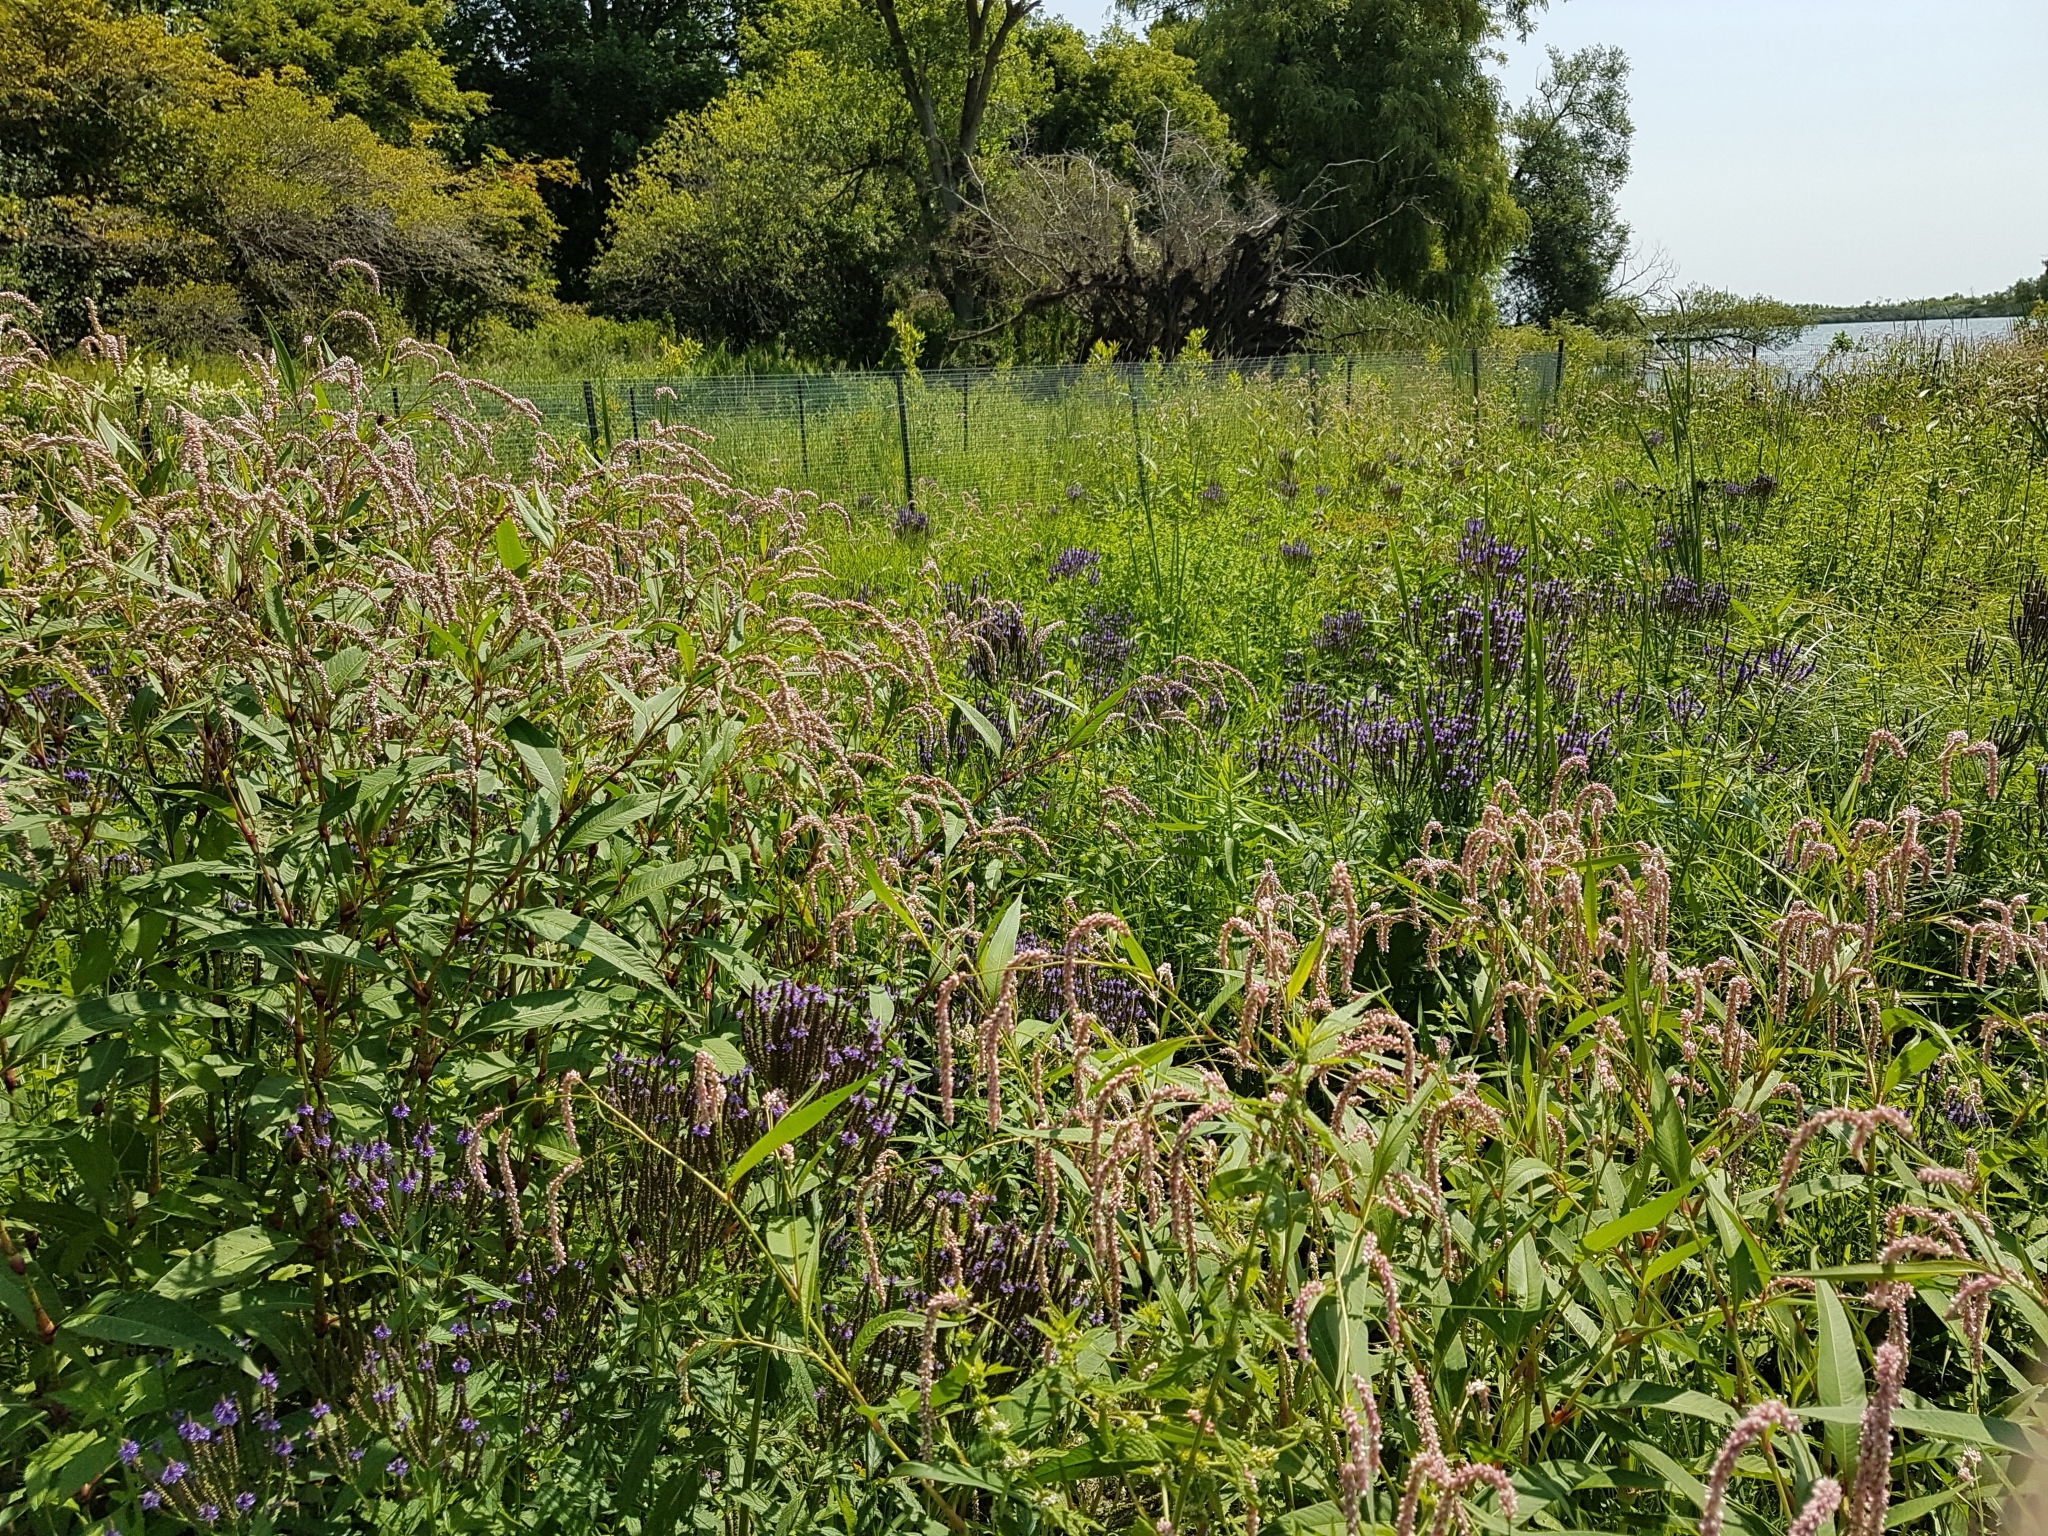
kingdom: Plantae
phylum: Tracheophyta
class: Magnoliopsida
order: Caryophyllales
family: Polygonaceae
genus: Persicaria
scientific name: Persicaria lapathifolia
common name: Curlytop knotweed
